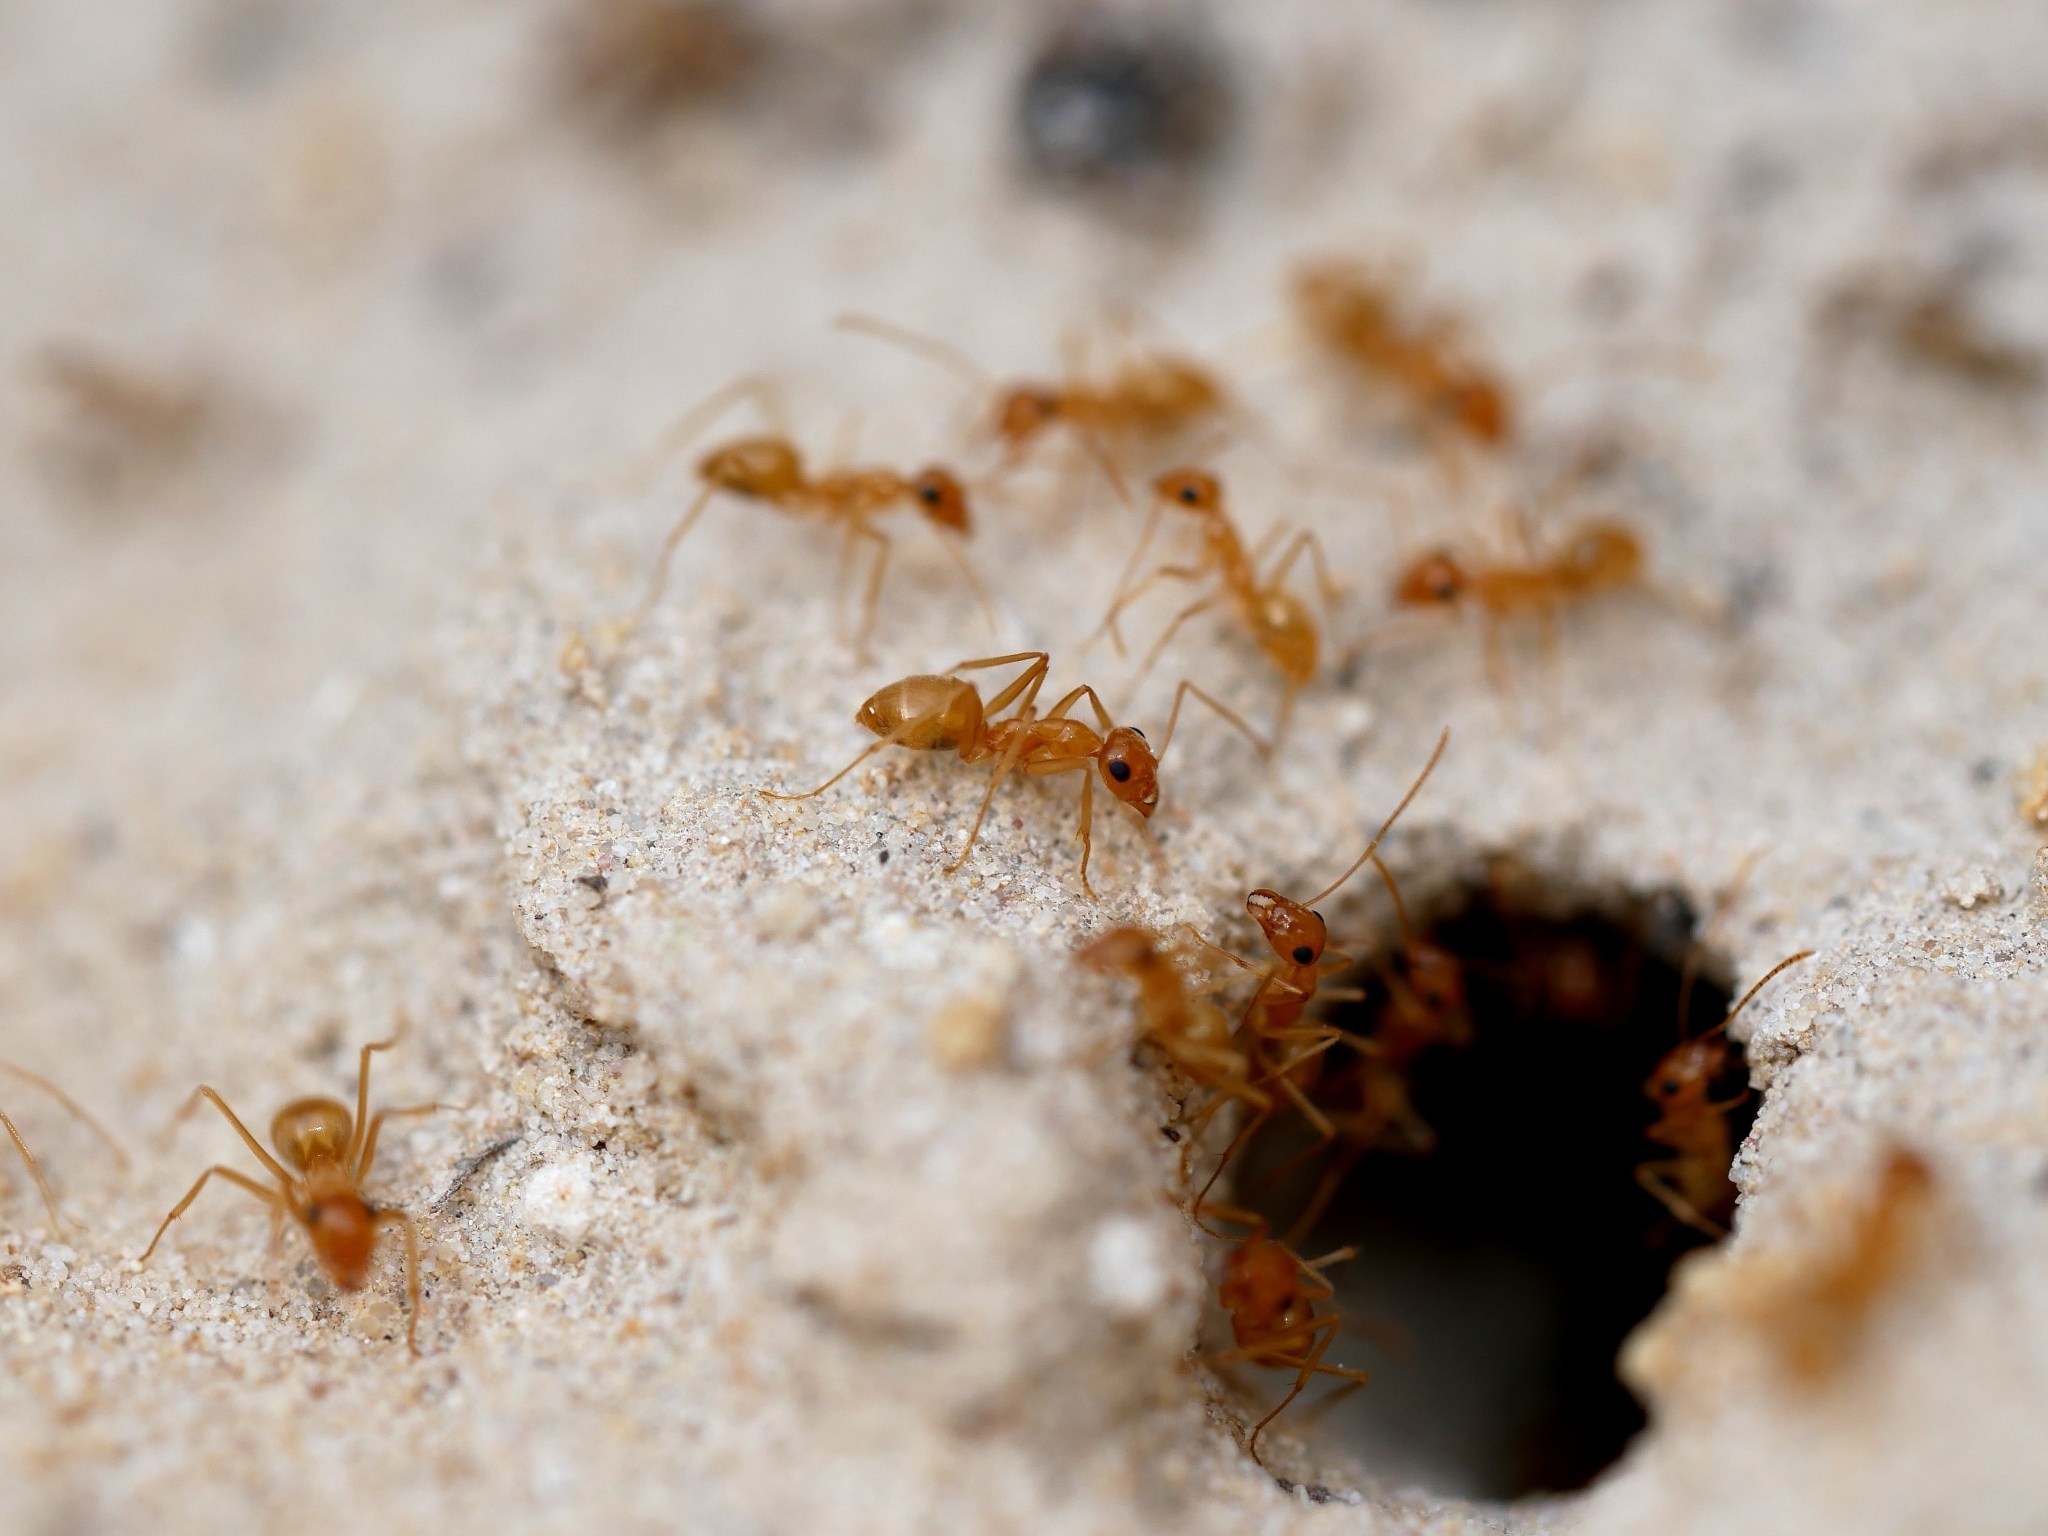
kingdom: Animalia
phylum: Arthropoda
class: Insecta
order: Hymenoptera
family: Formicidae
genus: Myrmecocystus
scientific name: Myrmecocystus testaceus
